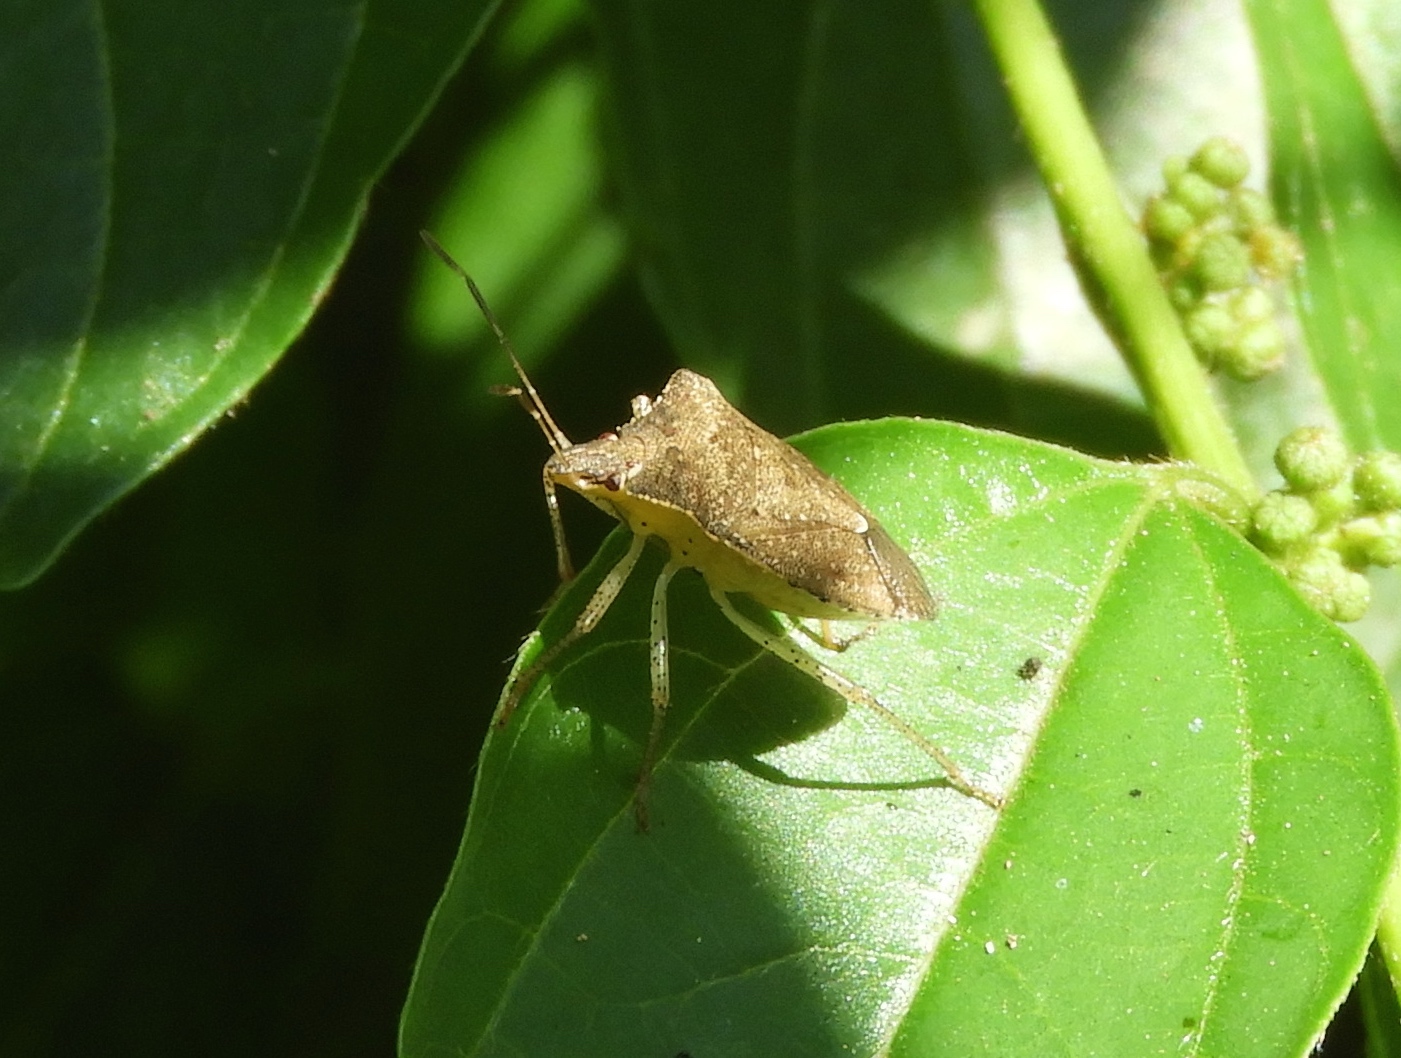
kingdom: Animalia
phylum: Arthropoda
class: Insecta
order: Hemiptera
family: Pentatomidae
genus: Euschistus
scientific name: Euschistus
